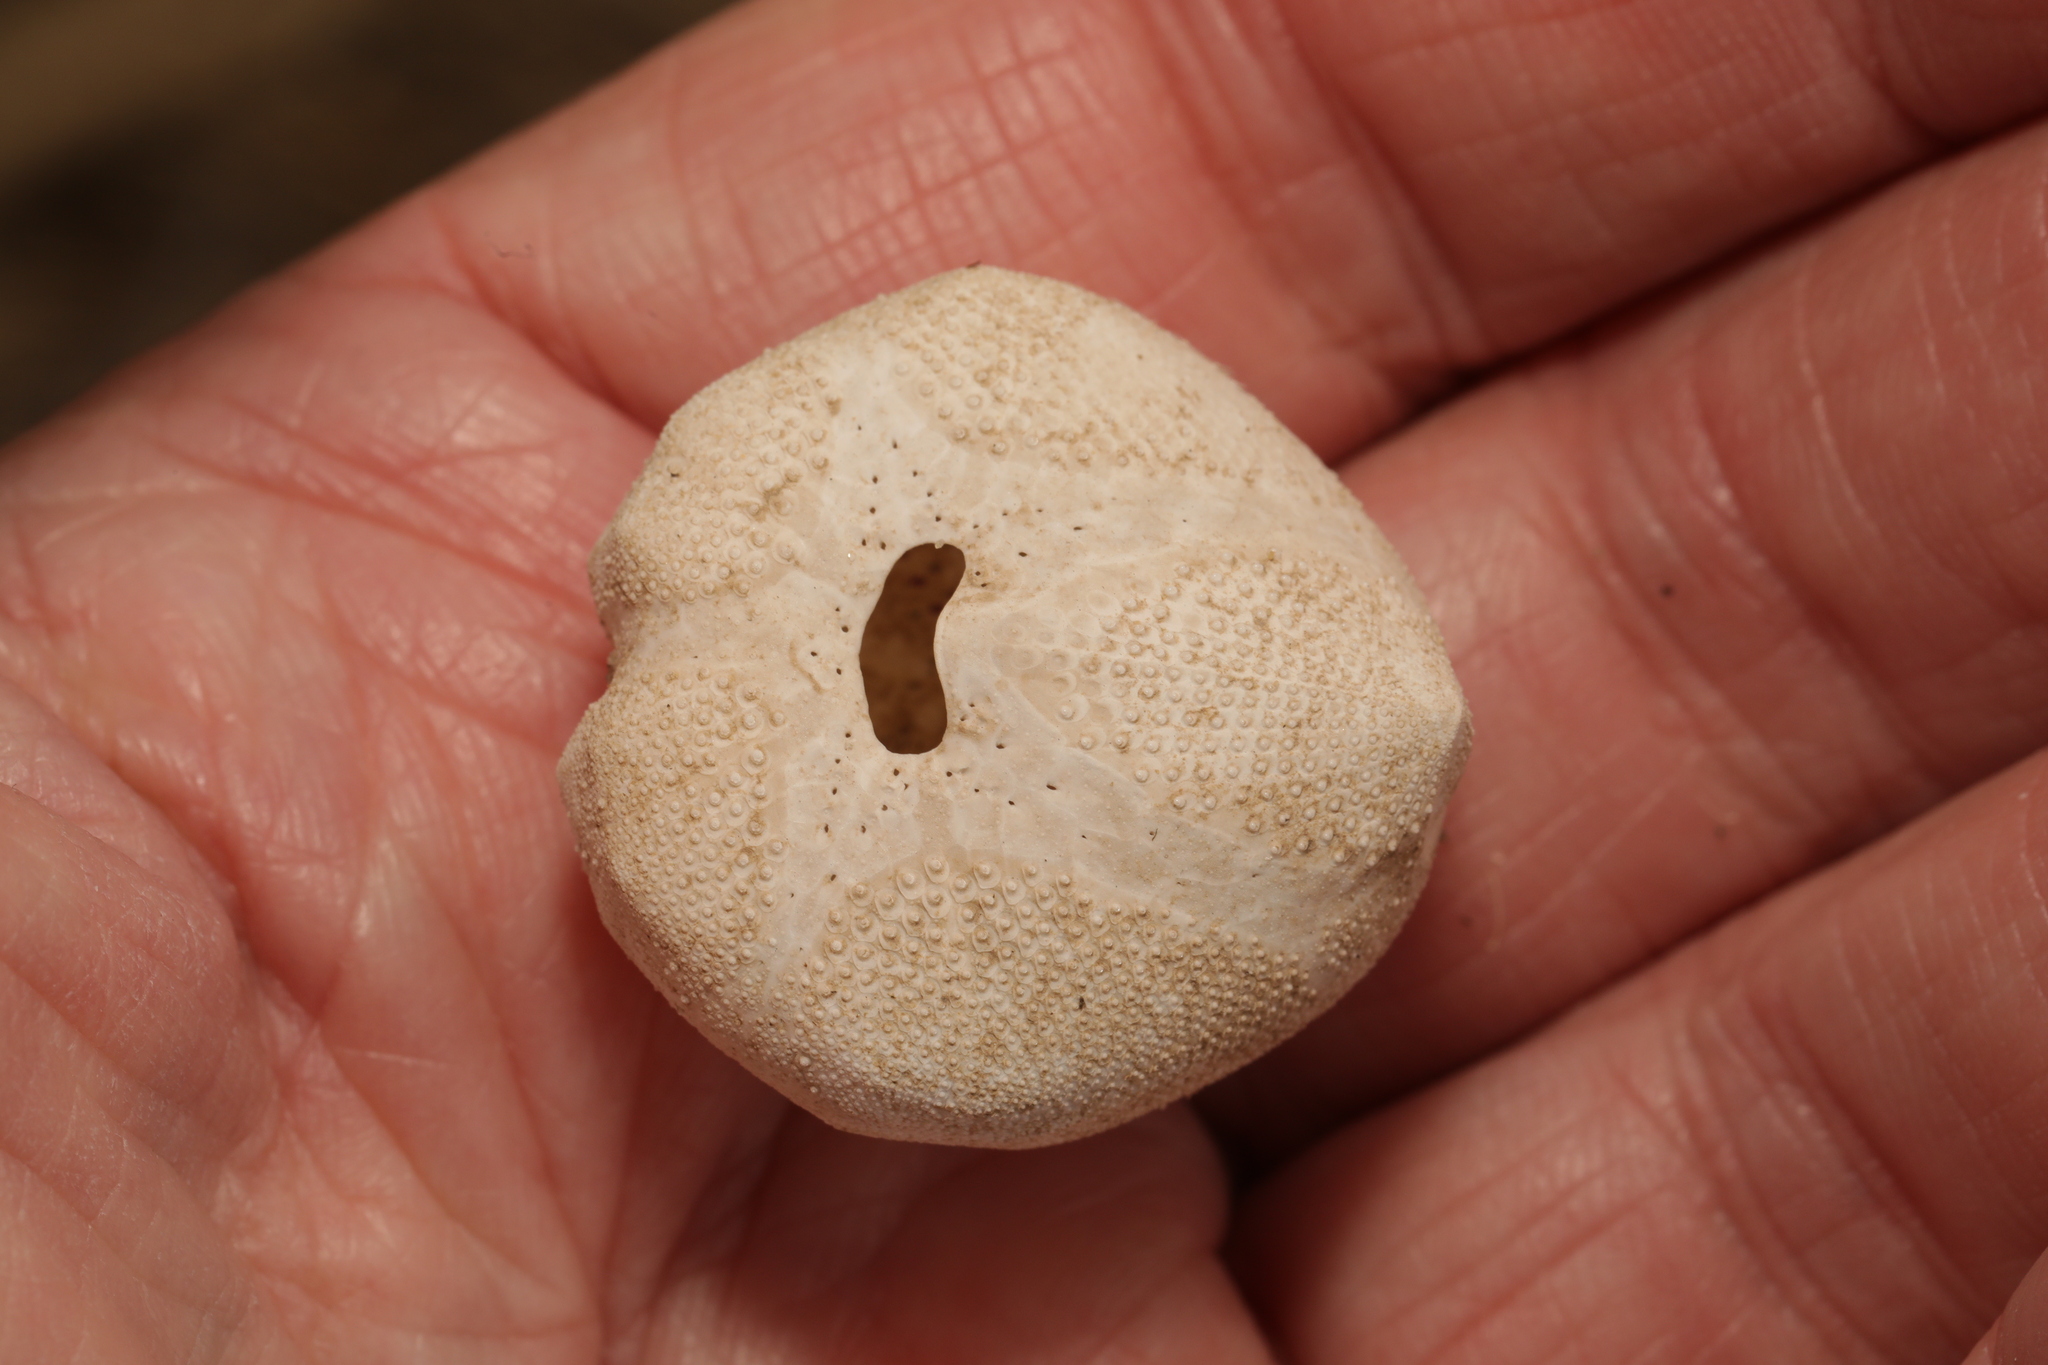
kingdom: Animalia
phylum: Echinodermata
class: Echinoidea
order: Spatangoida
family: Loveniidae
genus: Echinocardium
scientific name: Echinocardium cordatum
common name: Heart-urchin
